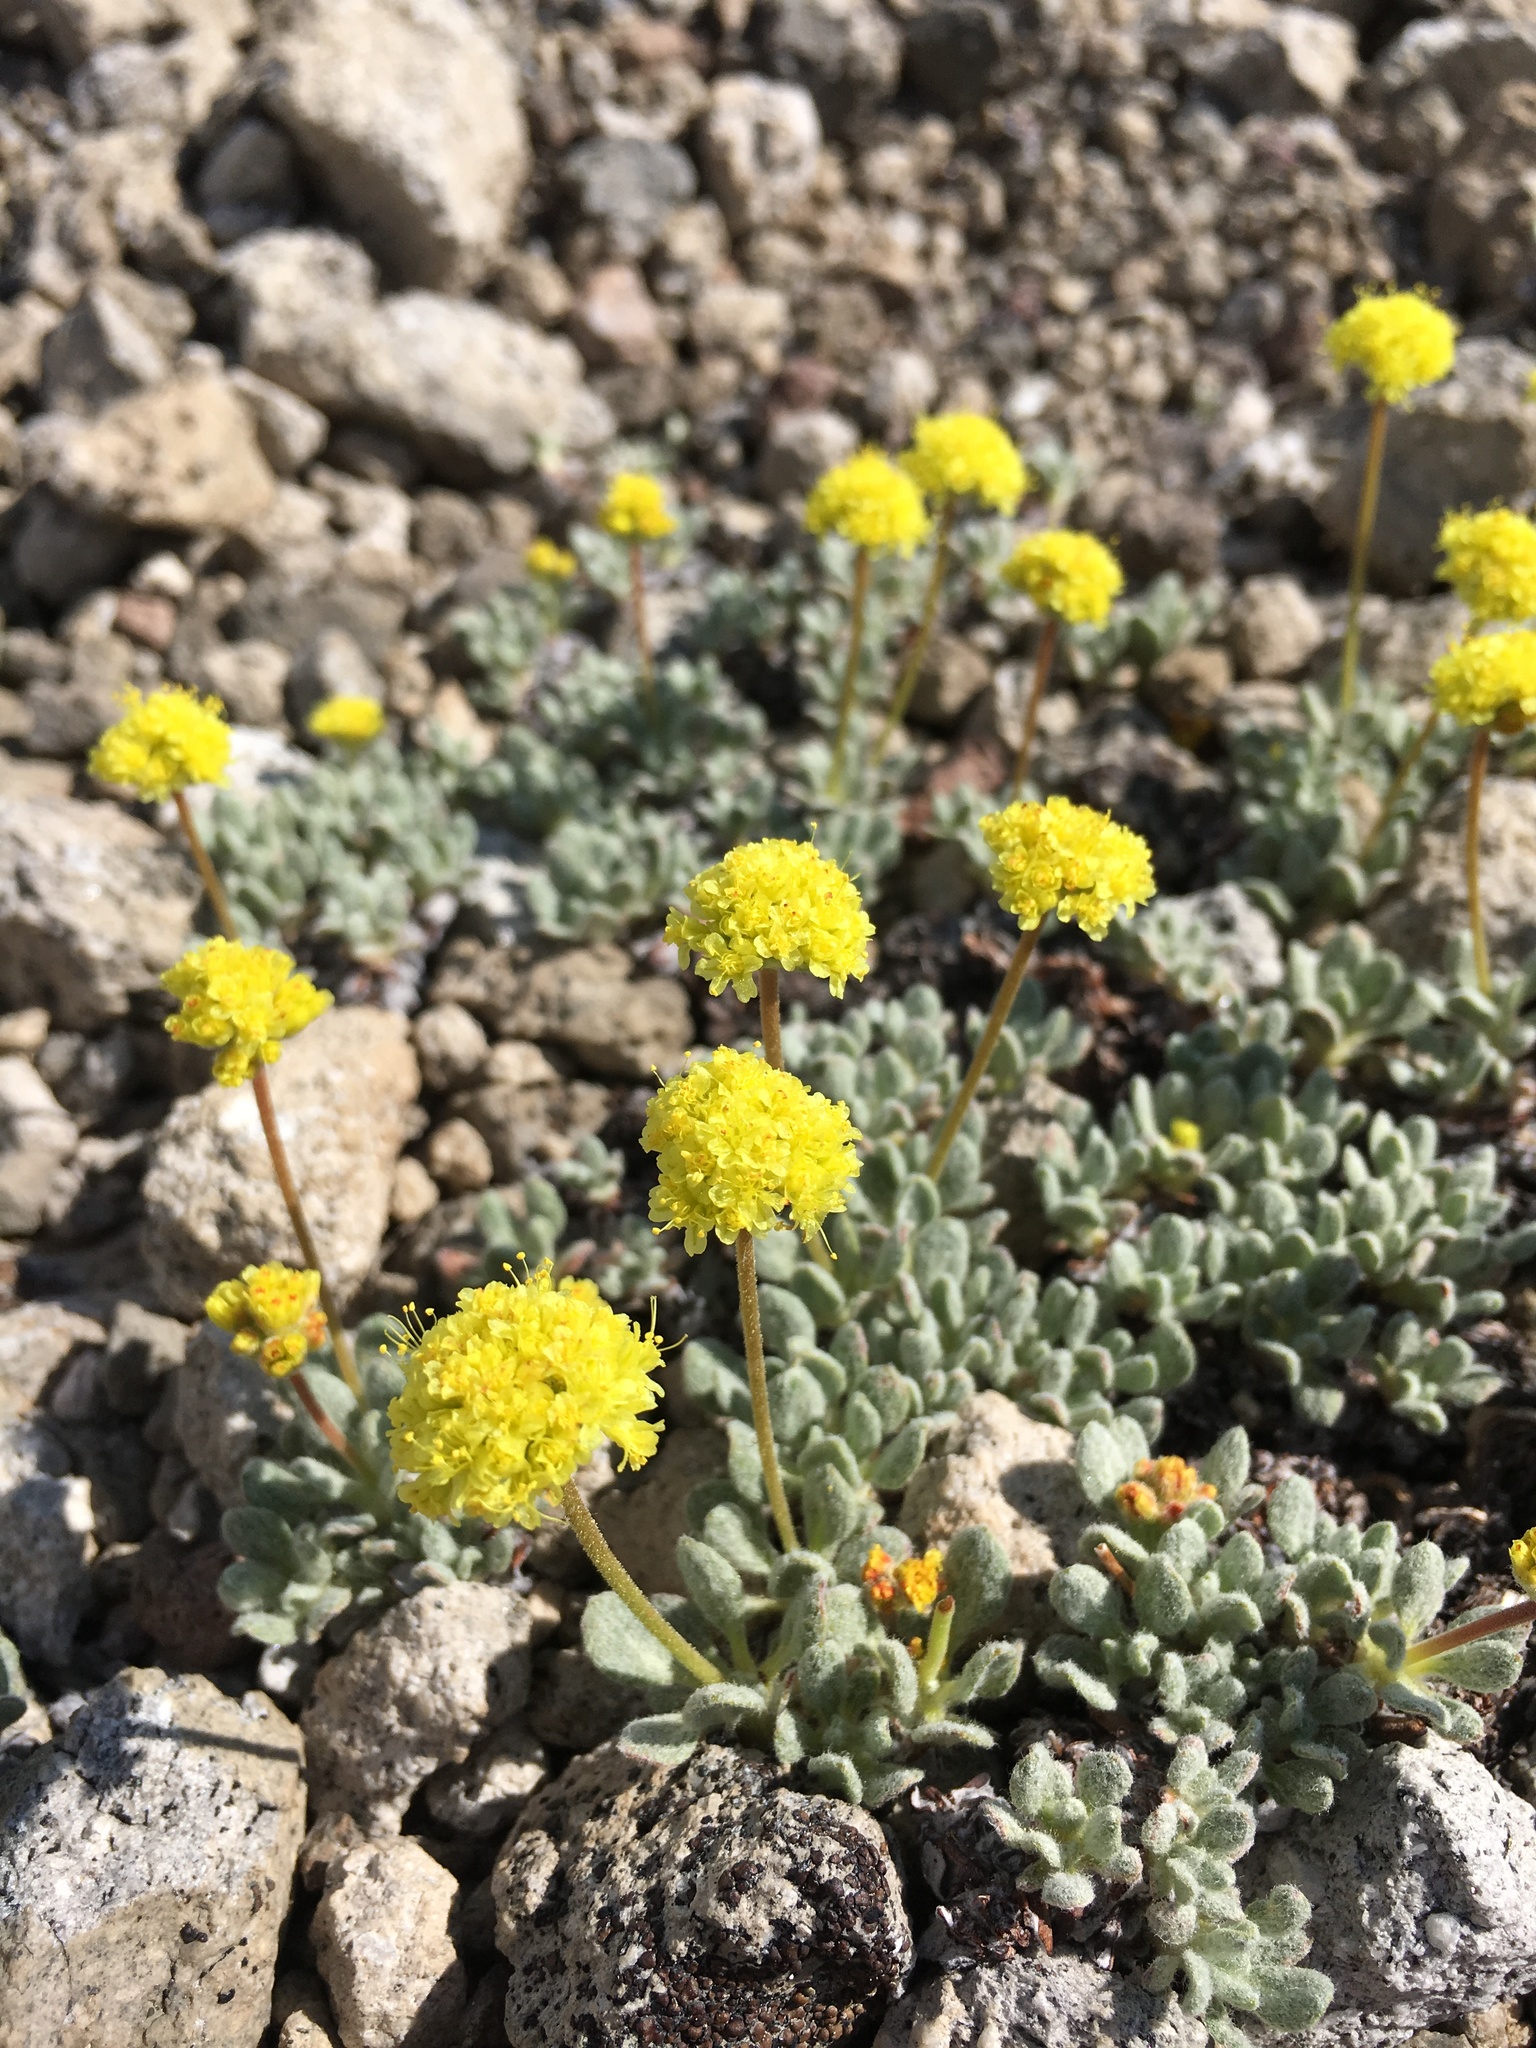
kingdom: Plantae
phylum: Tracheophyta
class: Magnoliopsida
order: Caryophyllales
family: Polygonaceae
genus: Eriogonum
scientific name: Eriogonum rosense
